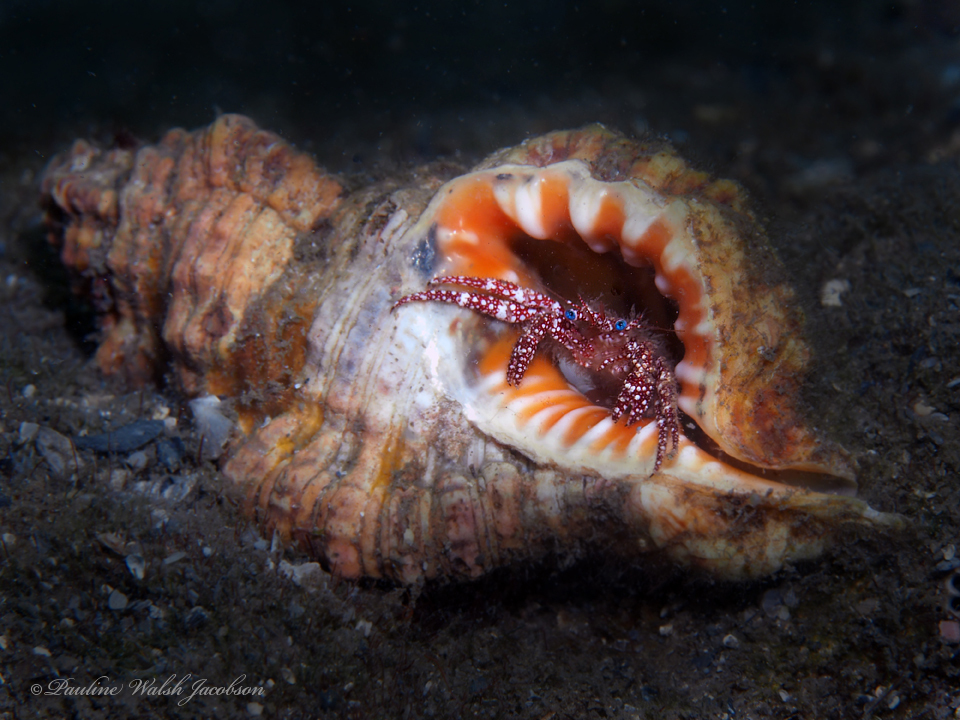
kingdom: Animalia
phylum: Mollusca
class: Gastropoda
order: Littorinimorpha
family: Cymatiidae
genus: Monoplex
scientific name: Monoplex nicobaricus
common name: Goldmouth triton
